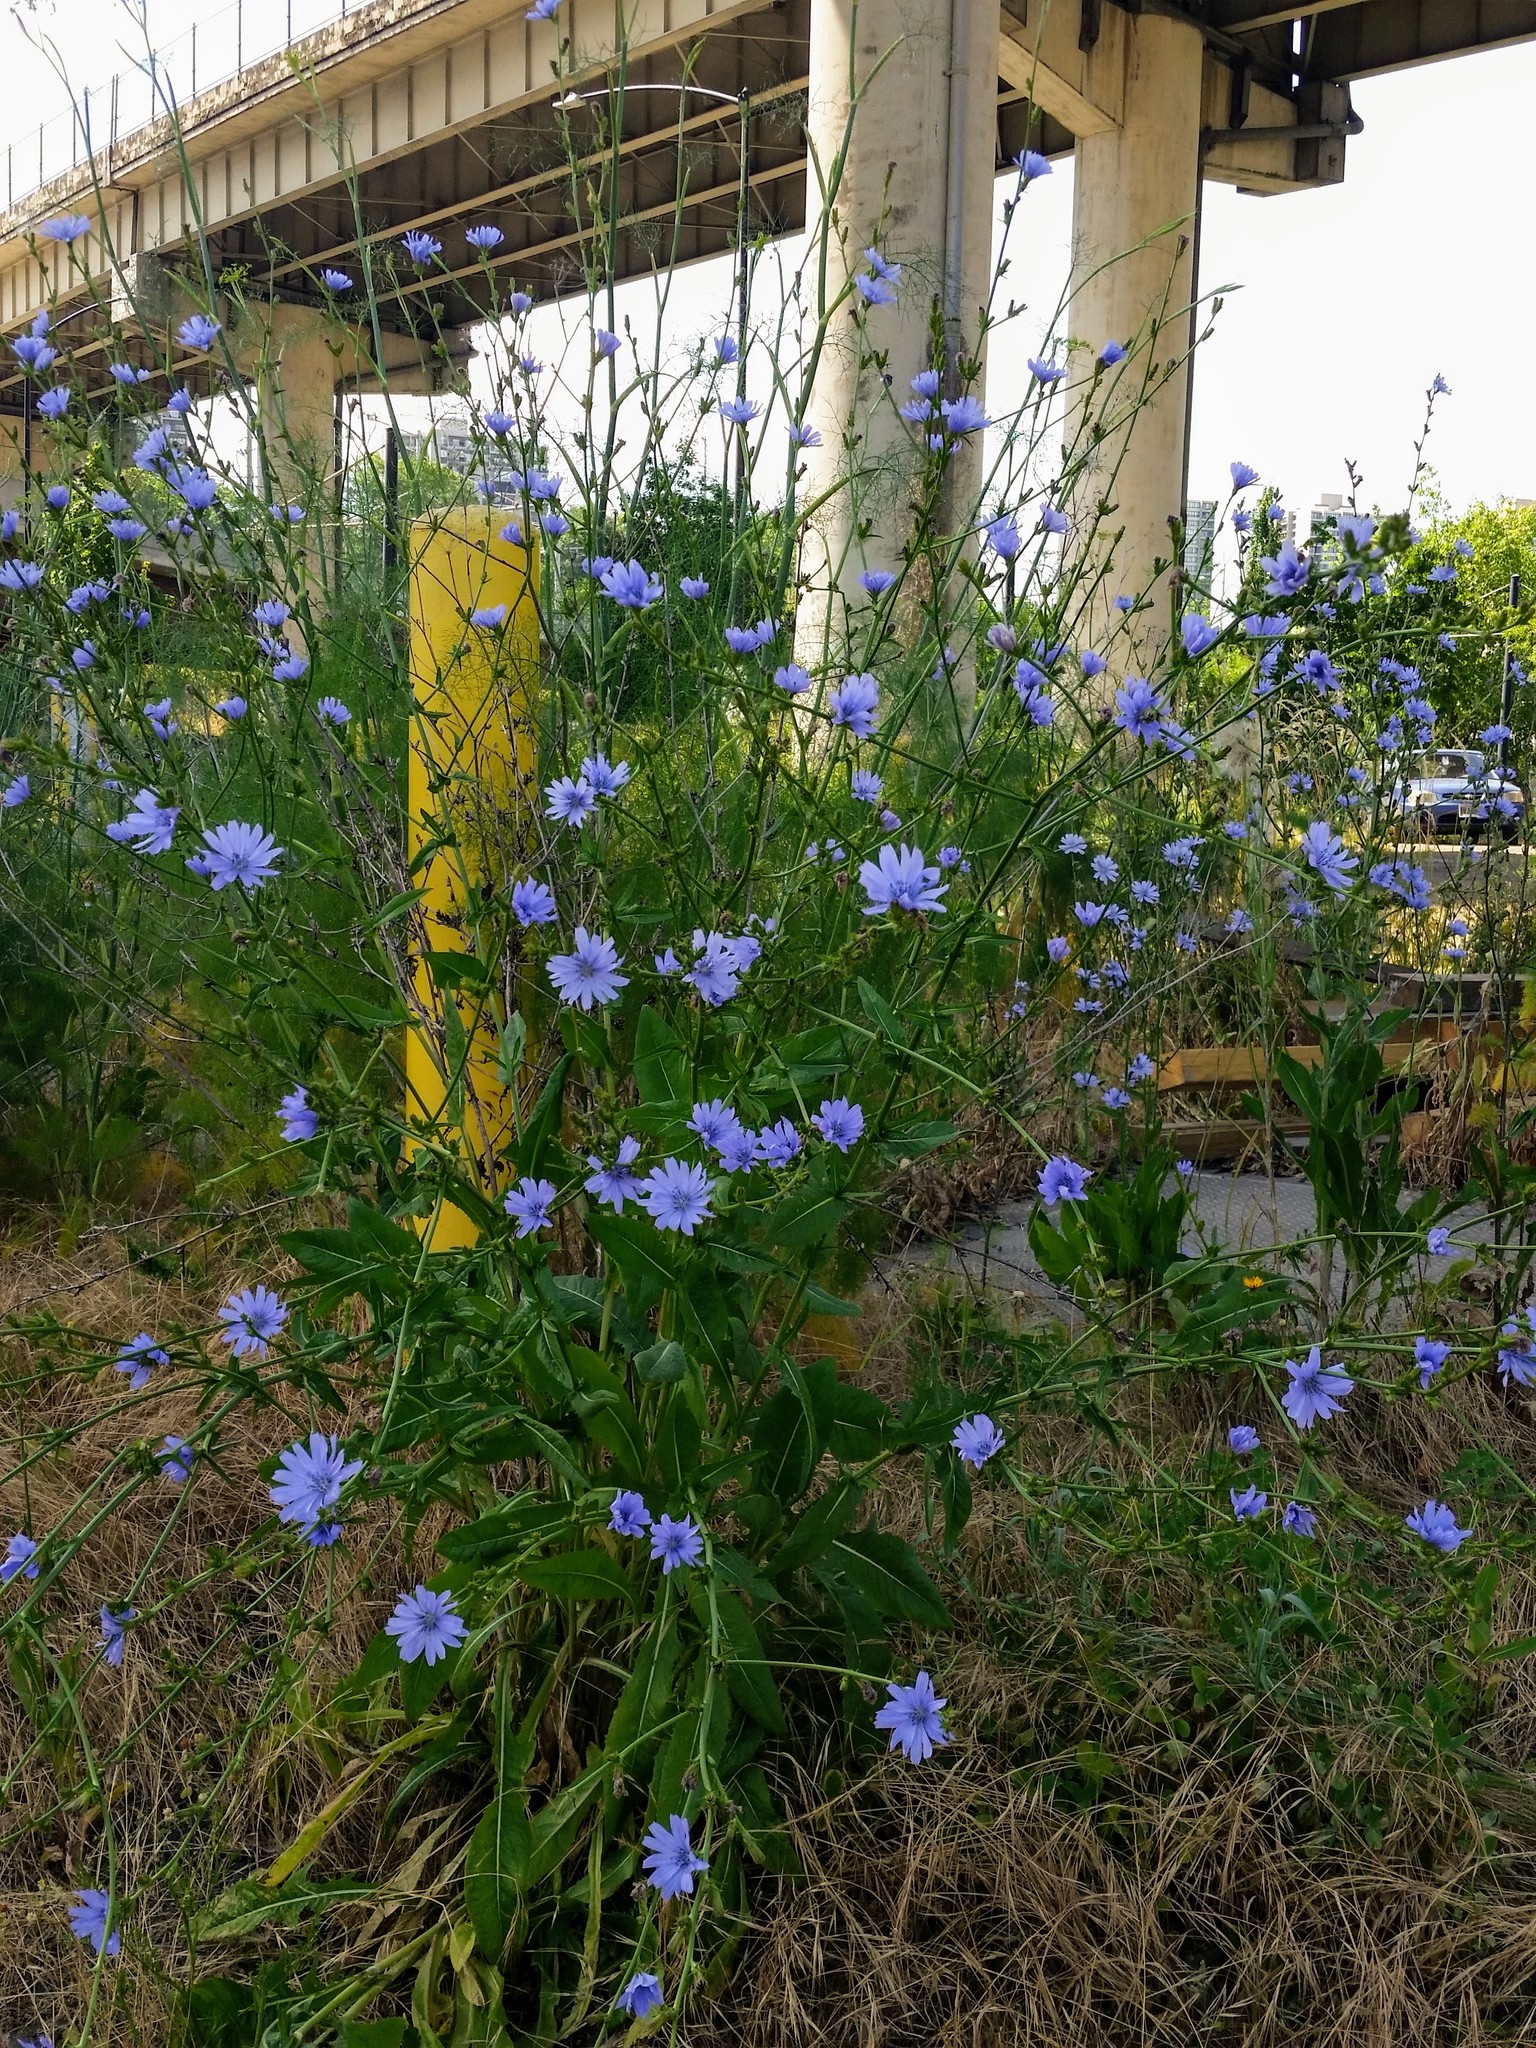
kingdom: Plantae
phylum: Tracheophyta
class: Magnoliopsida
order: Asterales
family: Asteraceae
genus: Cichorium
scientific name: Cichorium intybus
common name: Chicory
